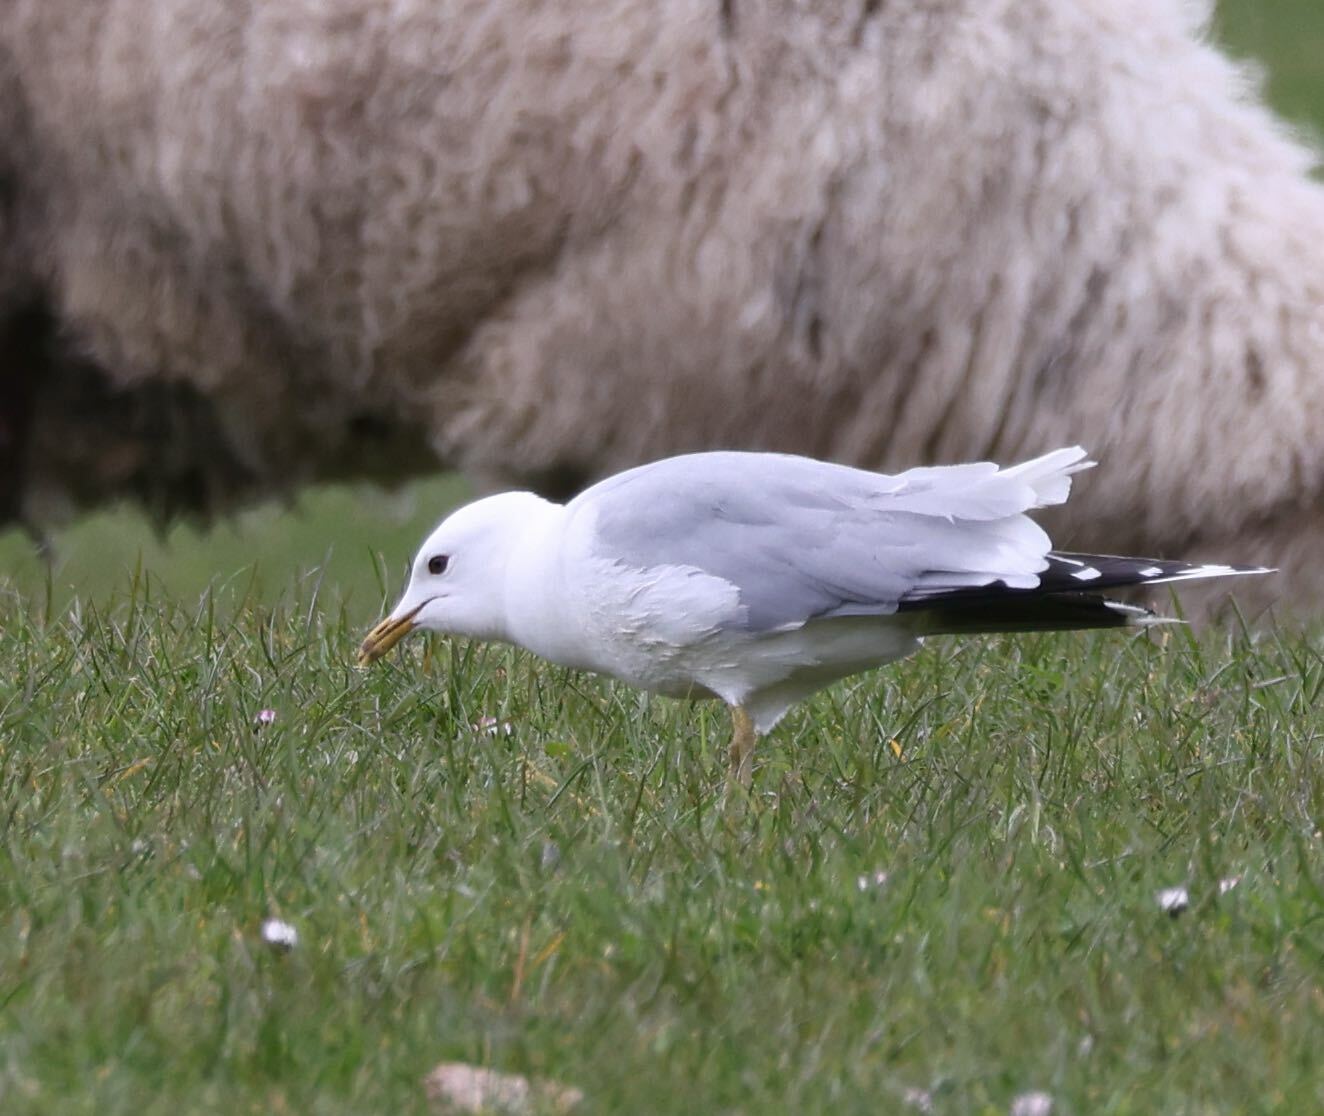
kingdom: Animalia
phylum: Chordata
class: Aves
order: Charadriiformes
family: Laridae
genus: Larus
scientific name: Larus canus
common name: Mew gull
